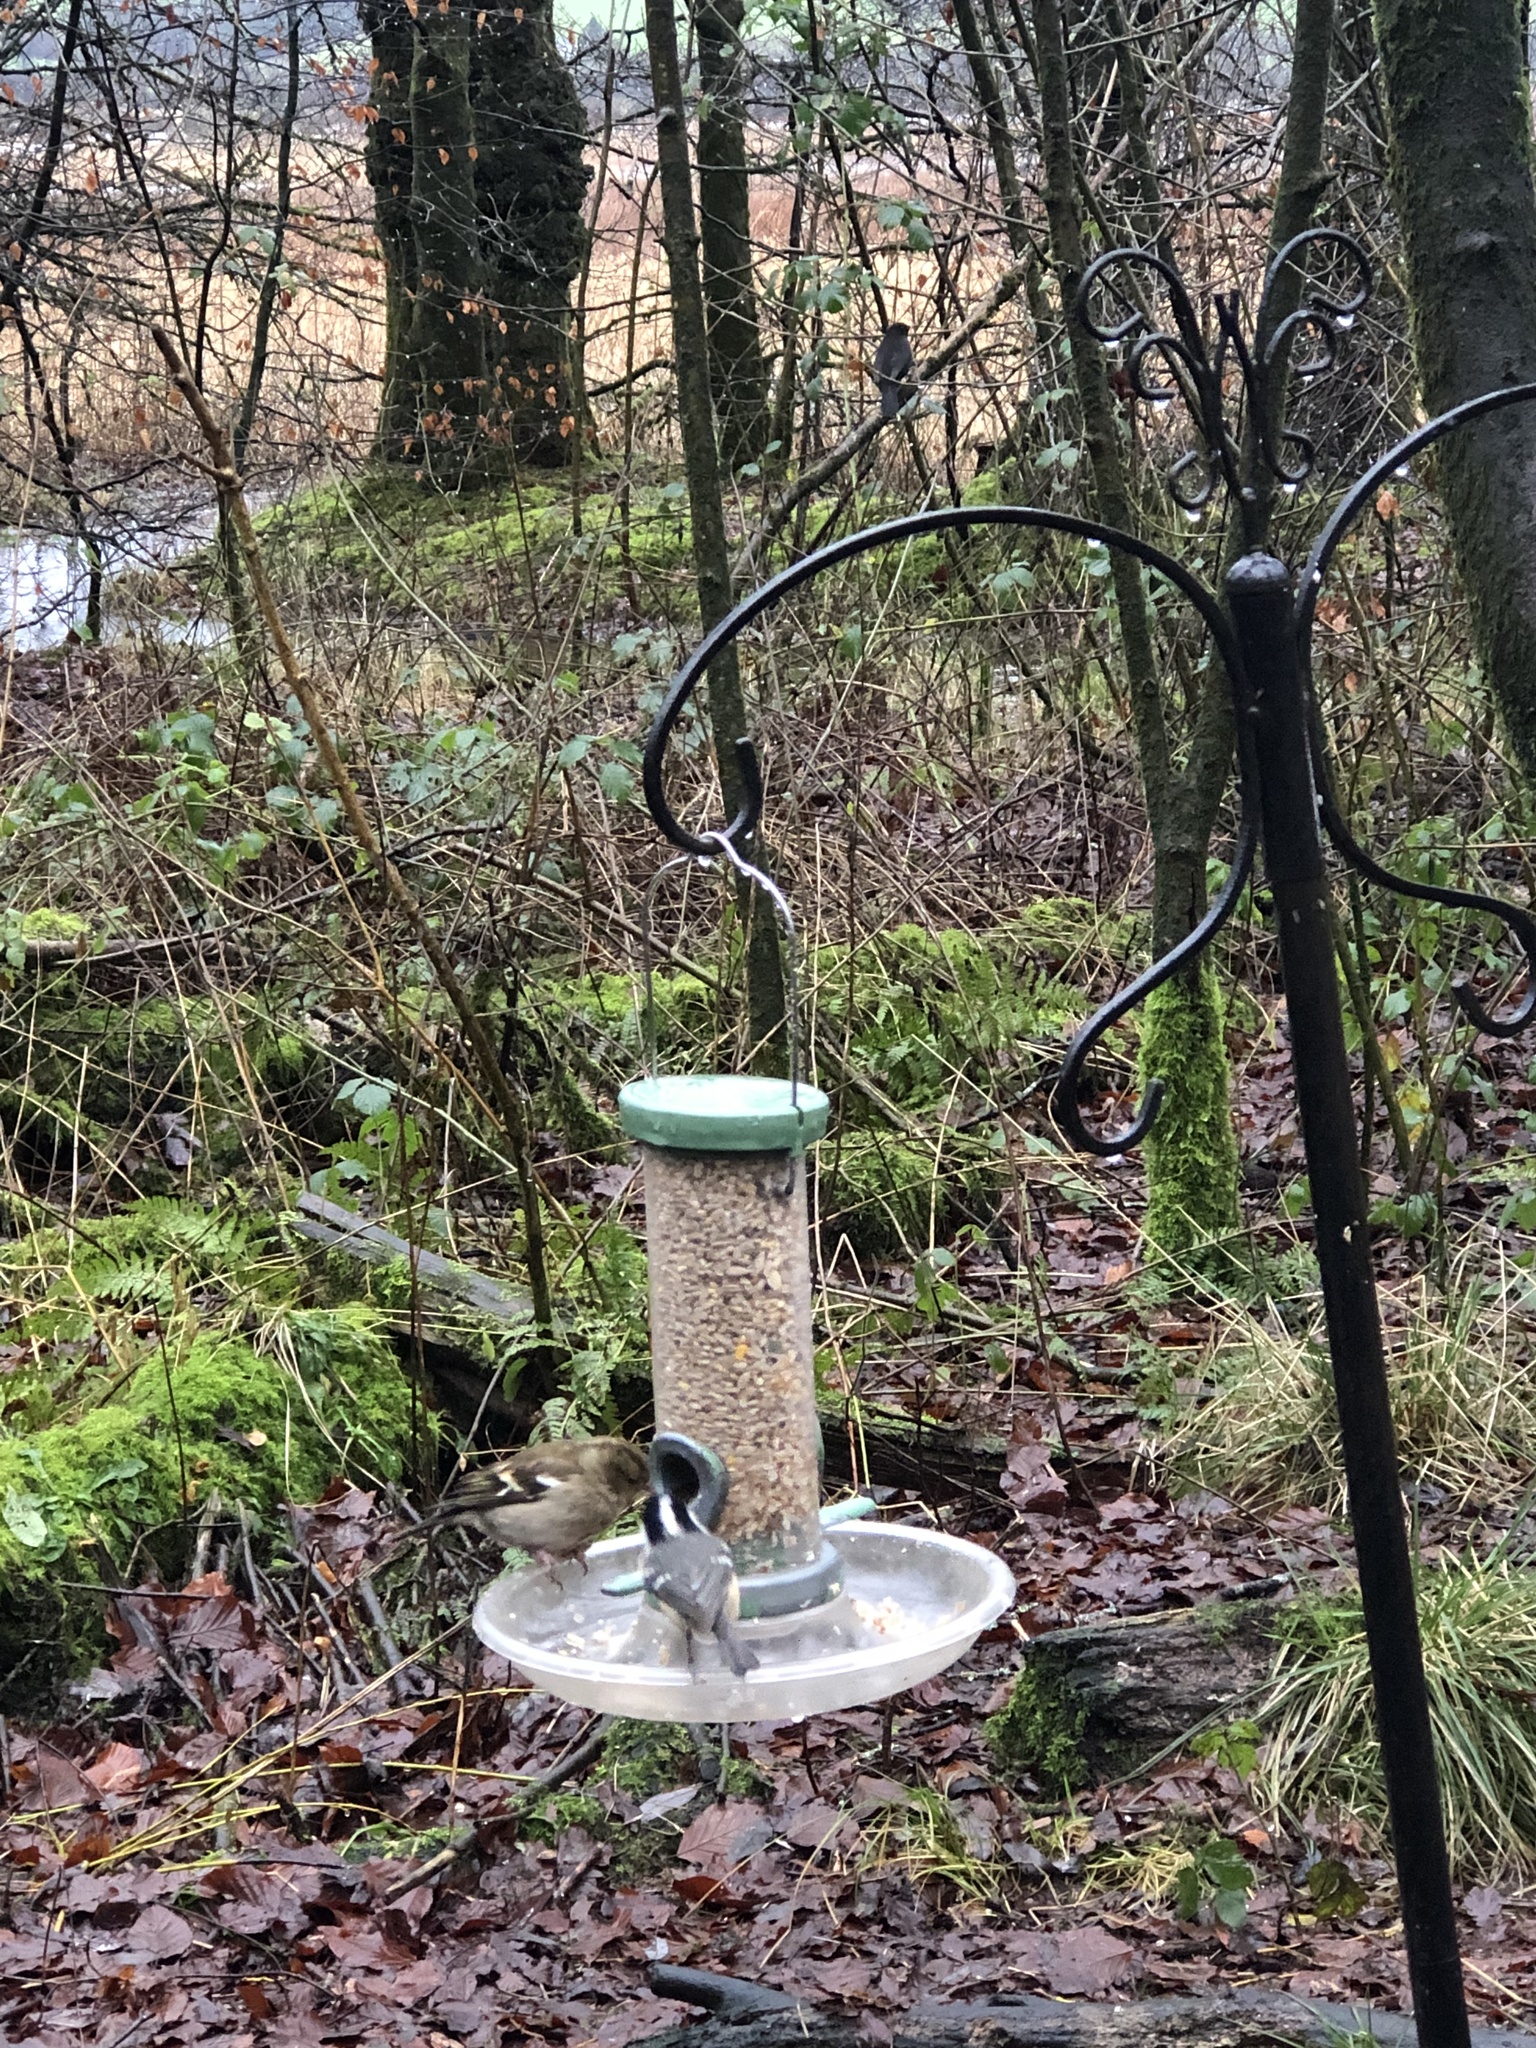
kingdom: Animalia
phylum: Chordata
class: Aves
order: Passeriformes
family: Fringillidae
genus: Fringilla
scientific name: Fringilla coelebs
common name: Common chaffinch
